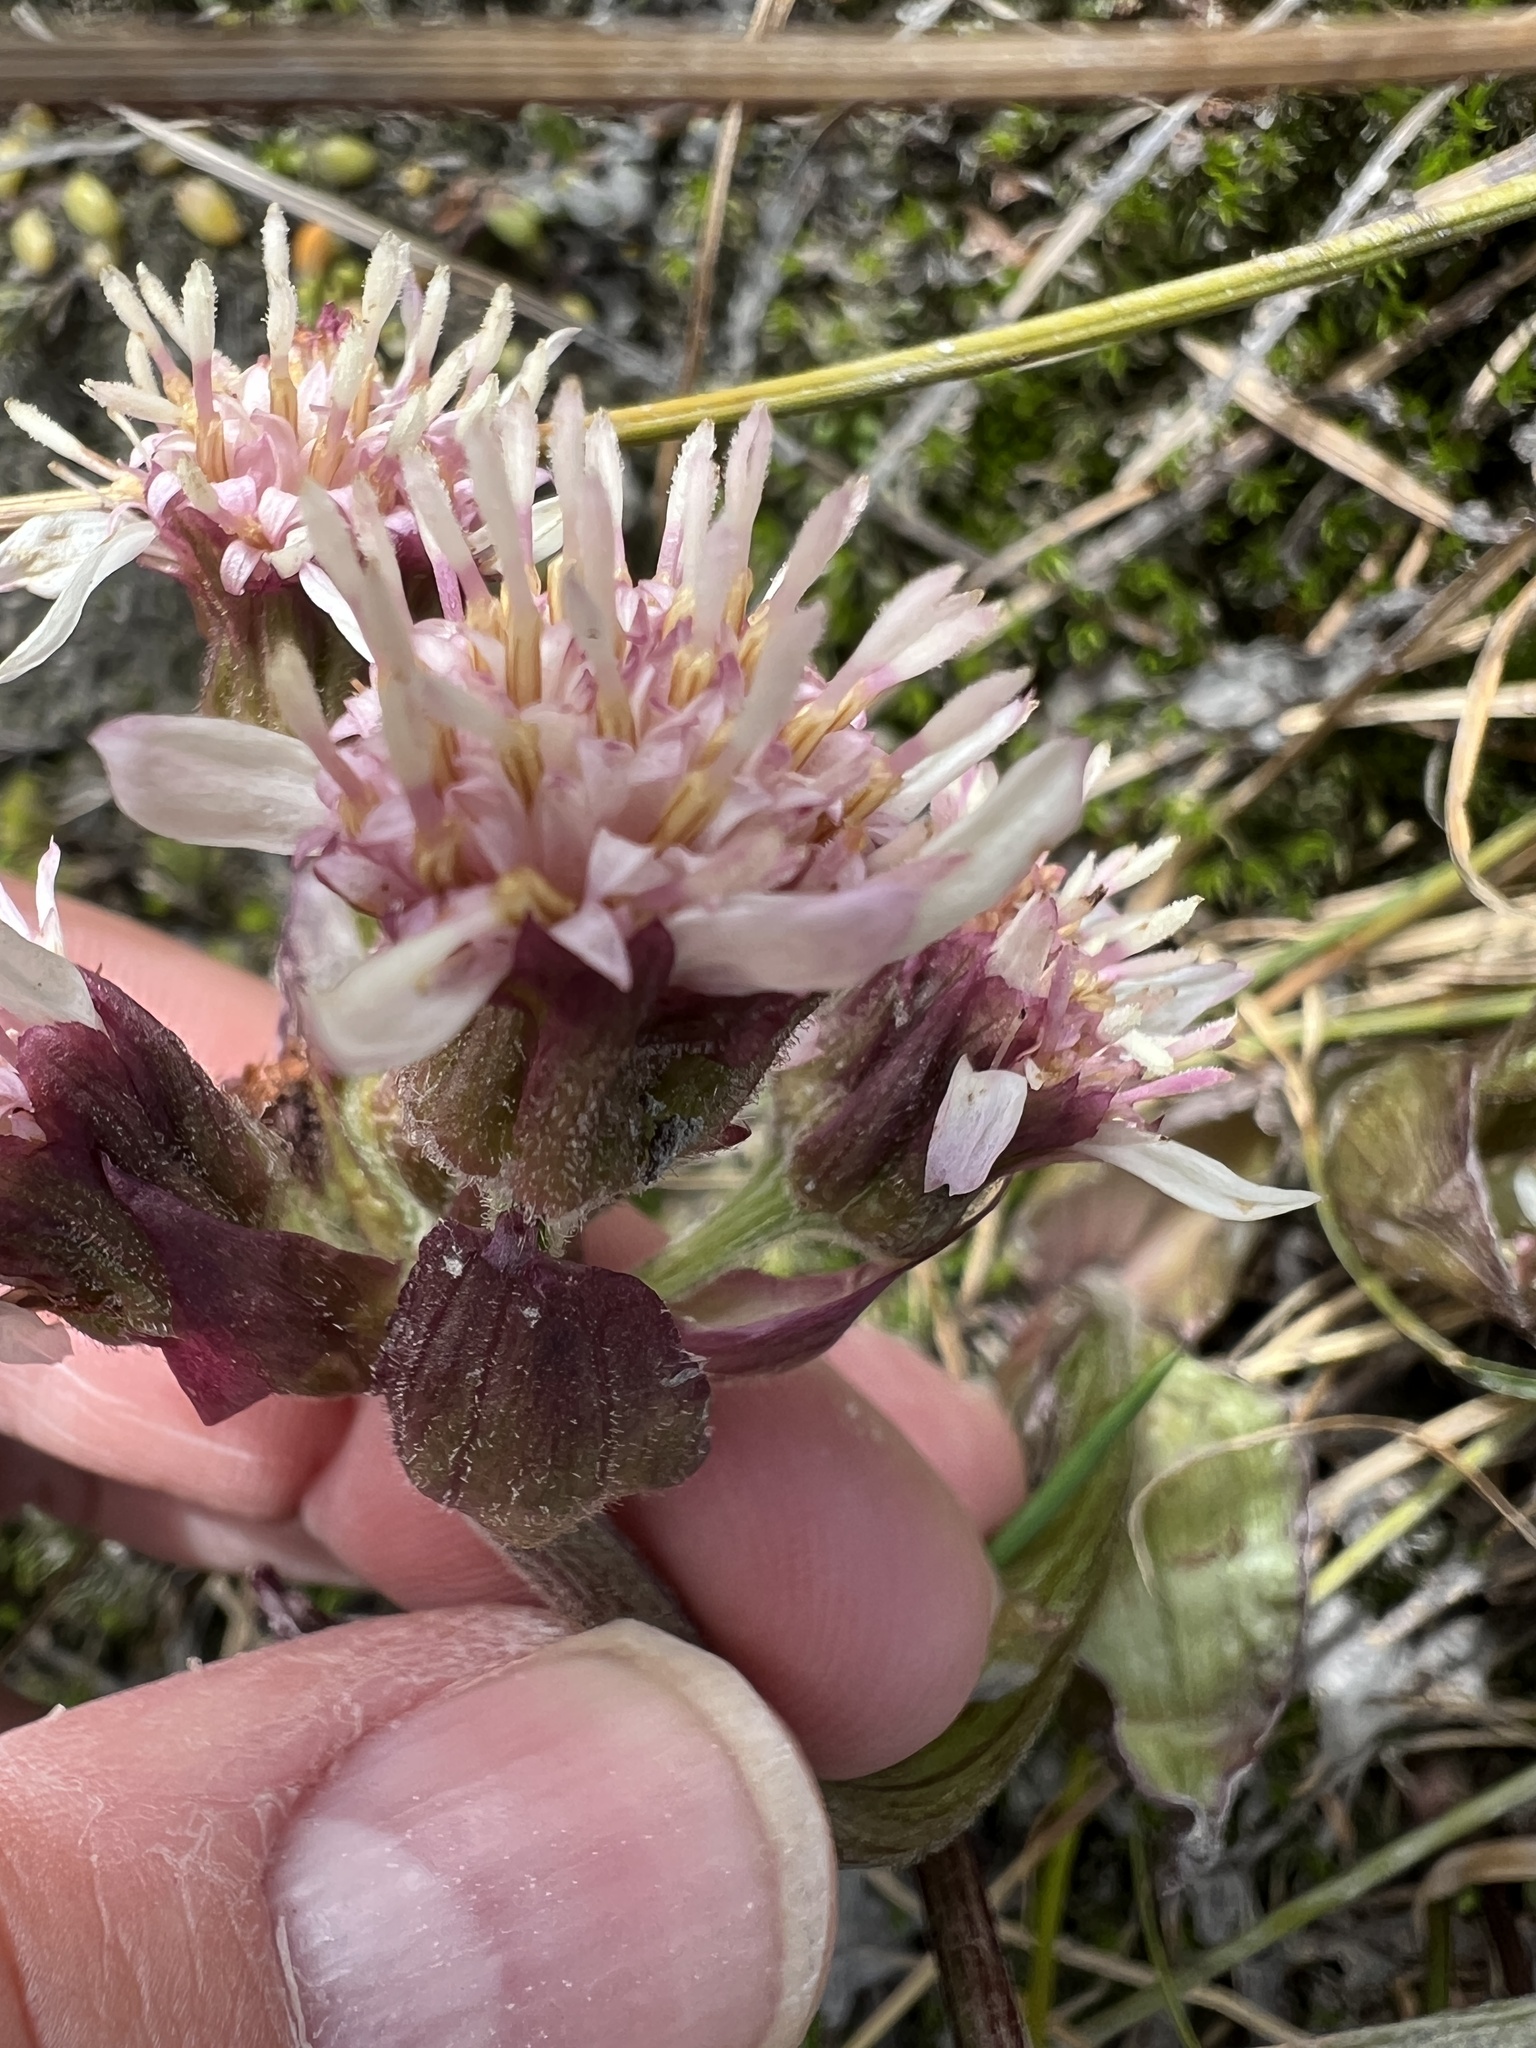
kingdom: Plantae
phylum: Tracheophyta
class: Magnoliopsida
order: Asterales
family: Asteraceae
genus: Petasites
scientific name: Petasites frigidus
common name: Arctic butterbur
